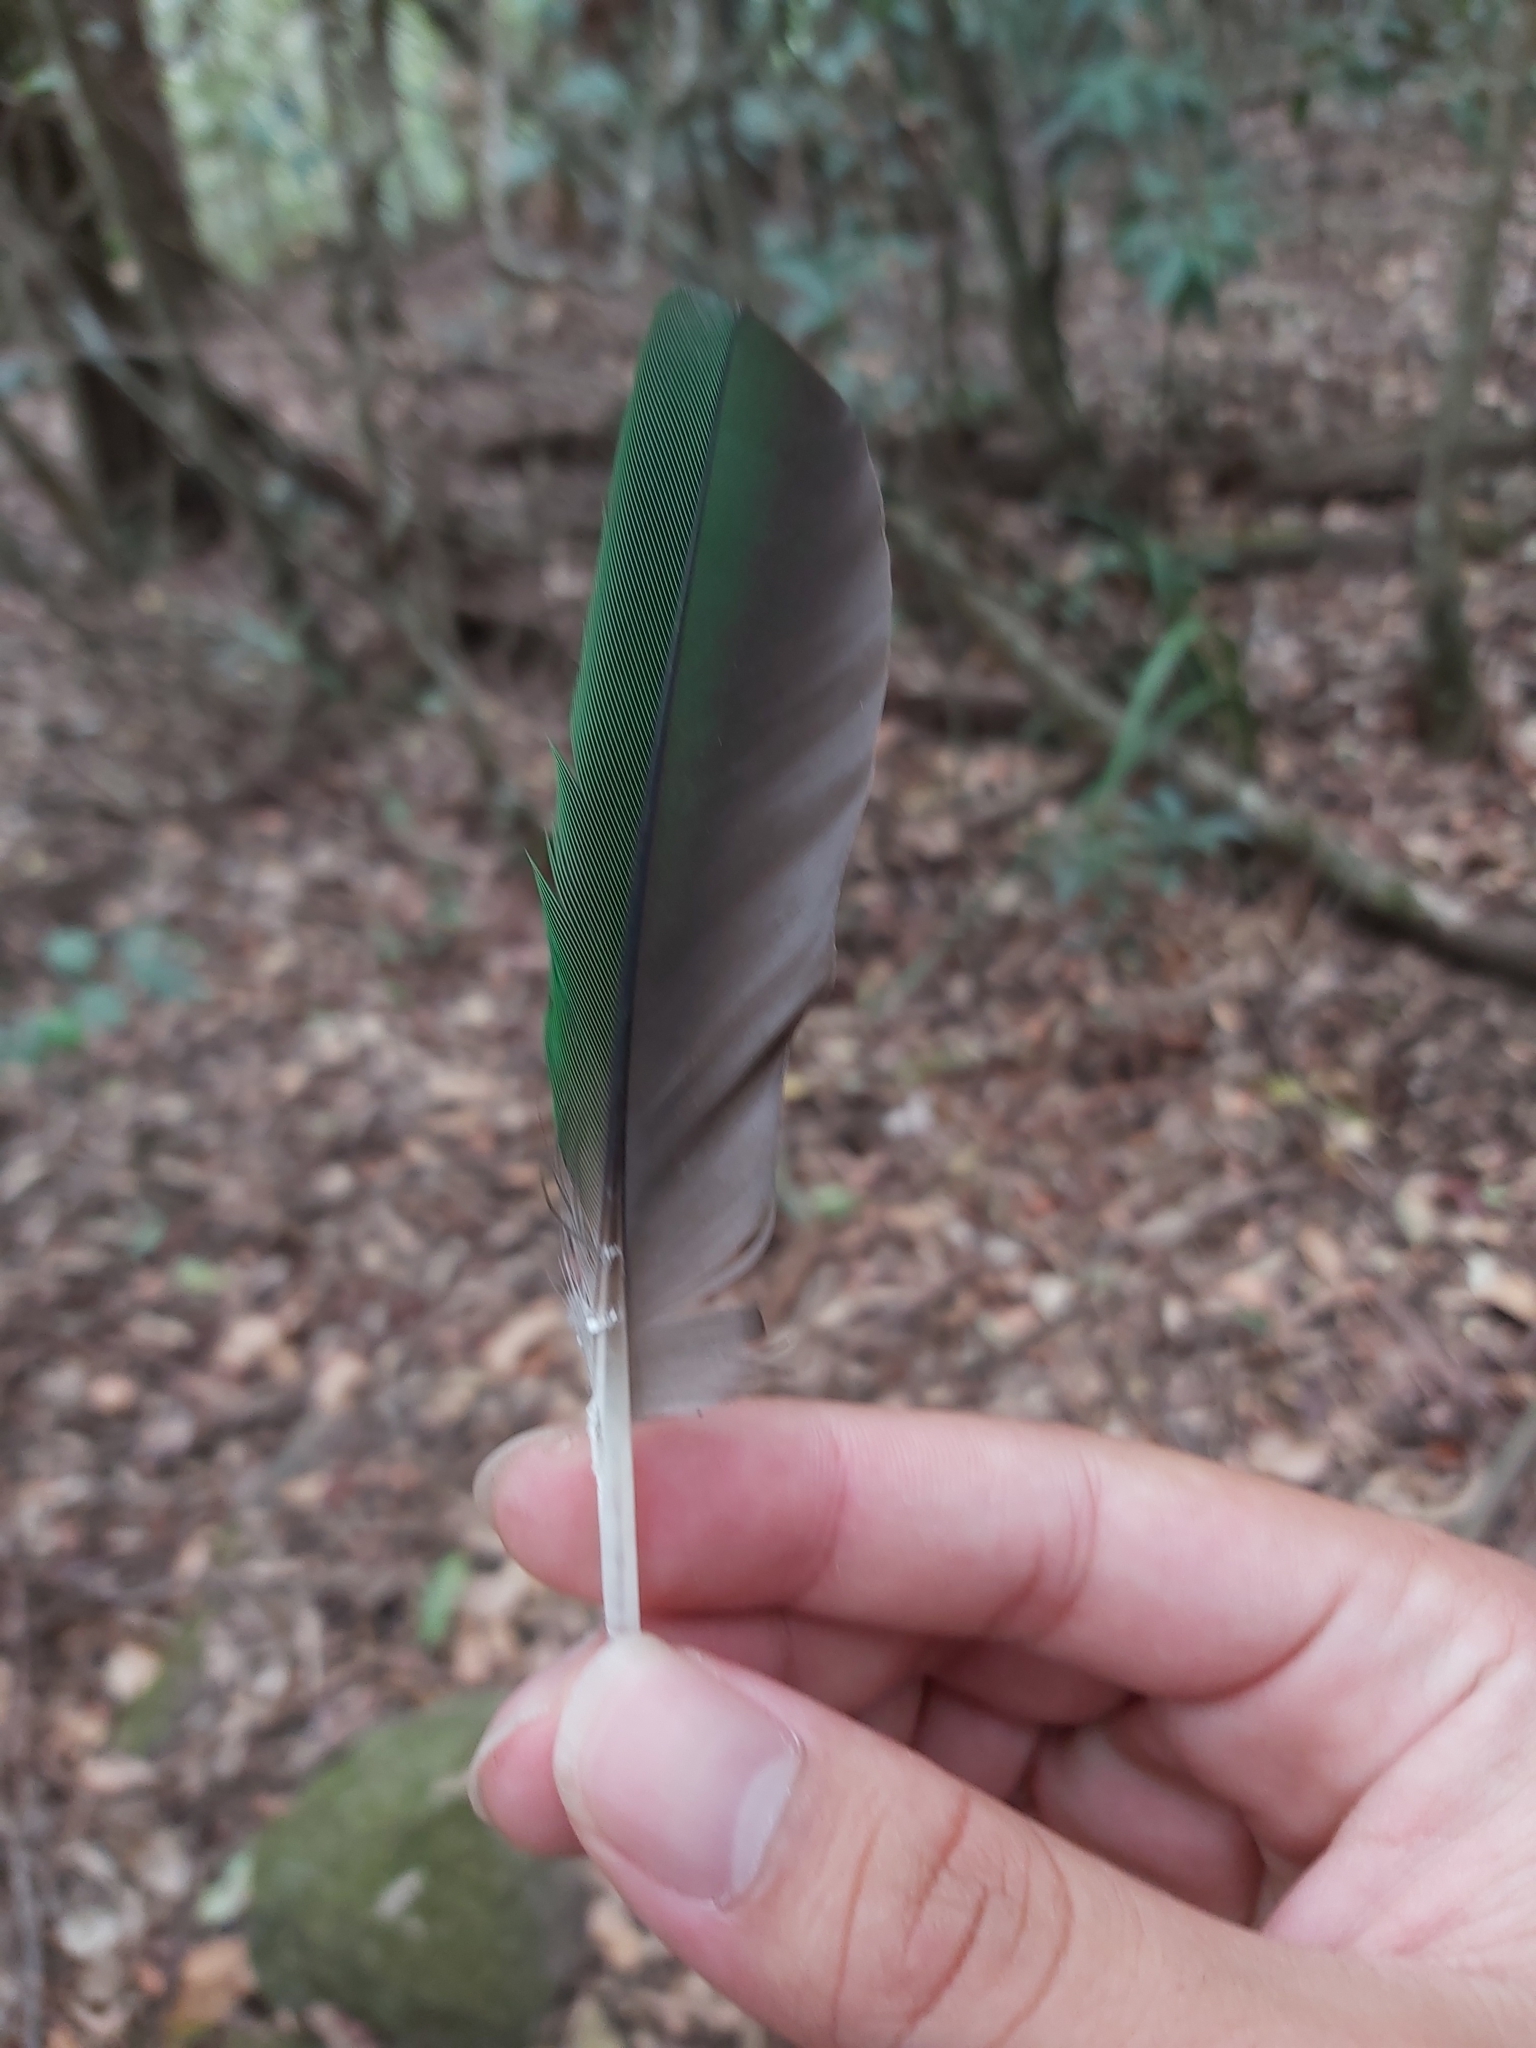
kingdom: Animalia
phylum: Chordata
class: Aves
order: Psittaciformes
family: Psittacidae
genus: Alisterus
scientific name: Alisterus scapularis
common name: Australian king parrot
